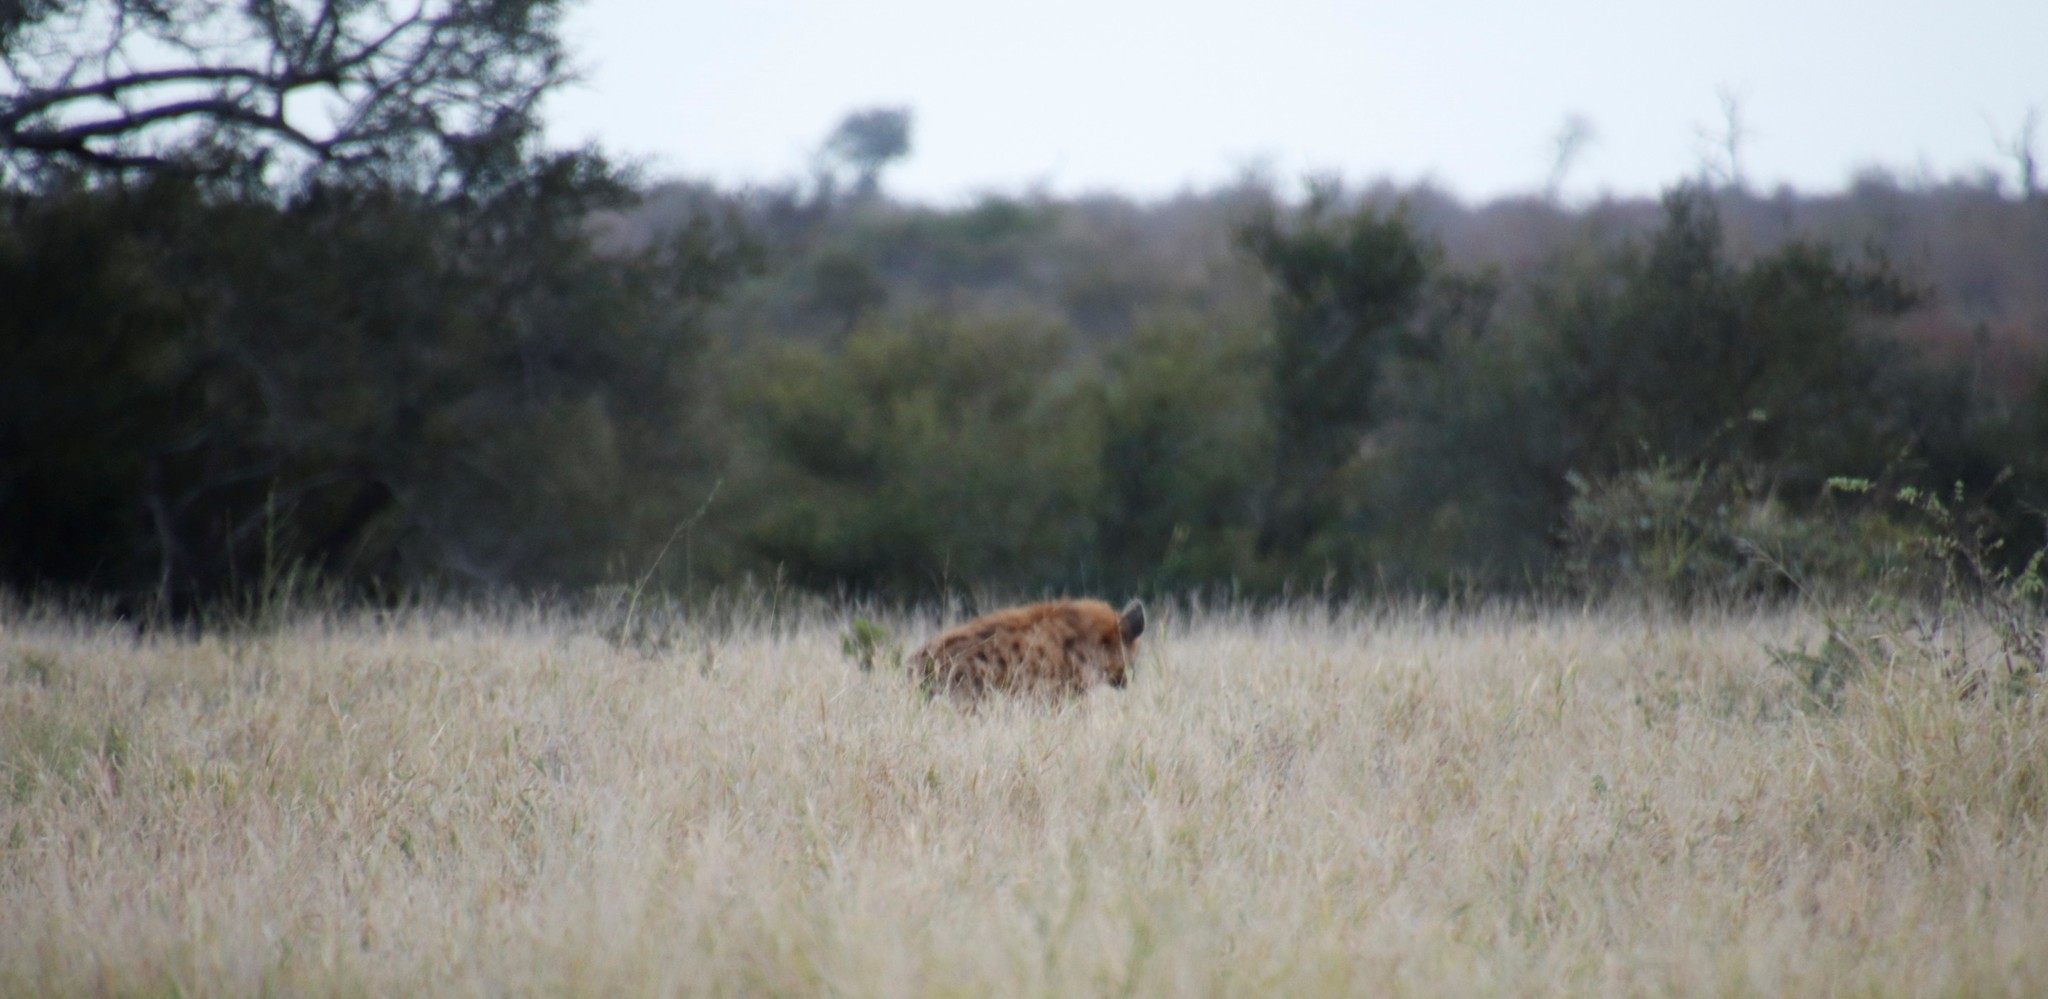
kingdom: Animalia
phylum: Chordata
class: Mammalia
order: Carnivora
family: Hyaenidae
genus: Crocuta
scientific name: Crocuta crocuta
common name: Spotted hyaena
